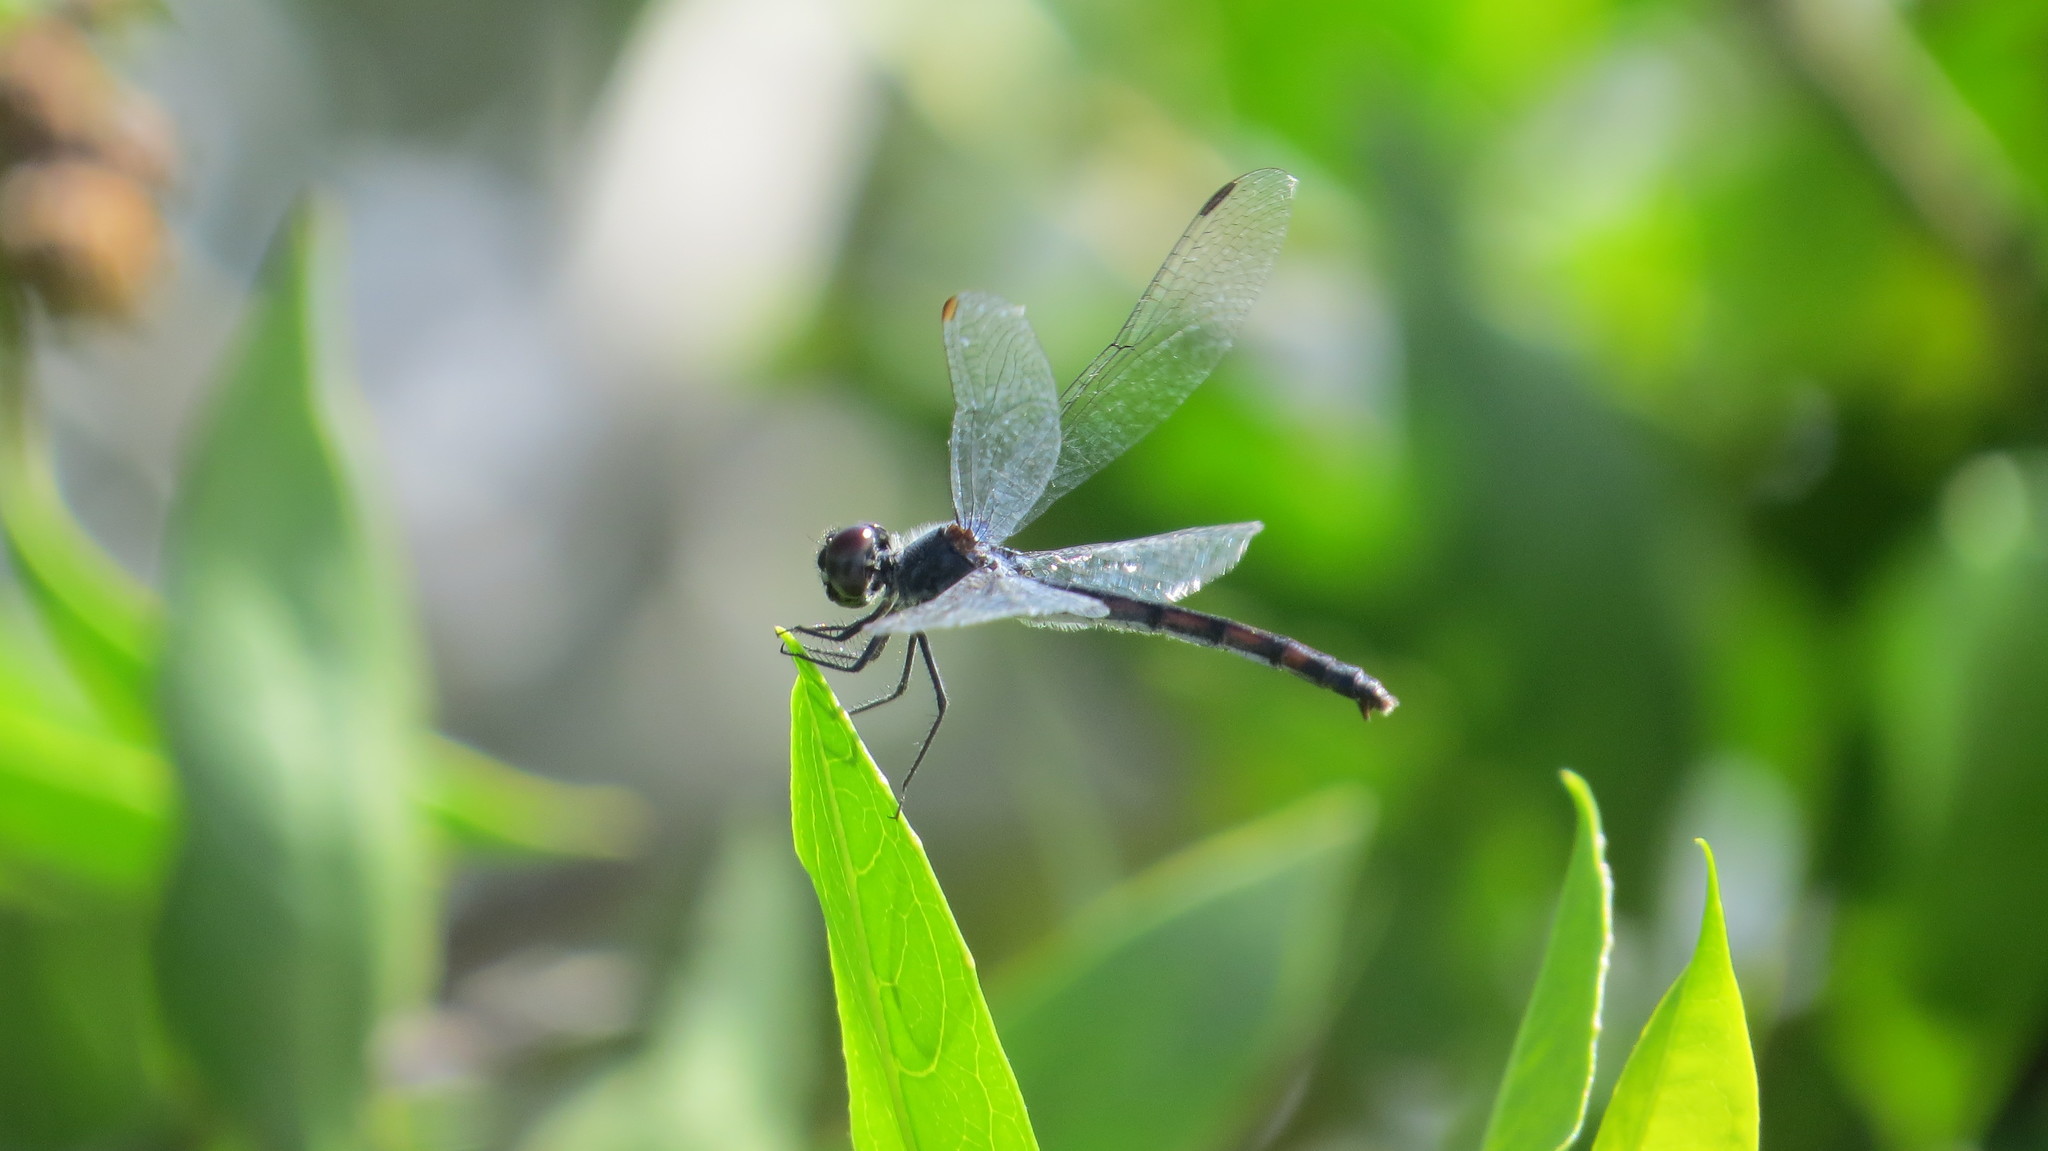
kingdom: Animalia
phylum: Arthropoda
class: Insecta
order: Odonata
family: Libellulidae
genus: Erythrodiplax
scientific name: Erythrodiplax berenice
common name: Seaside dragonlet
